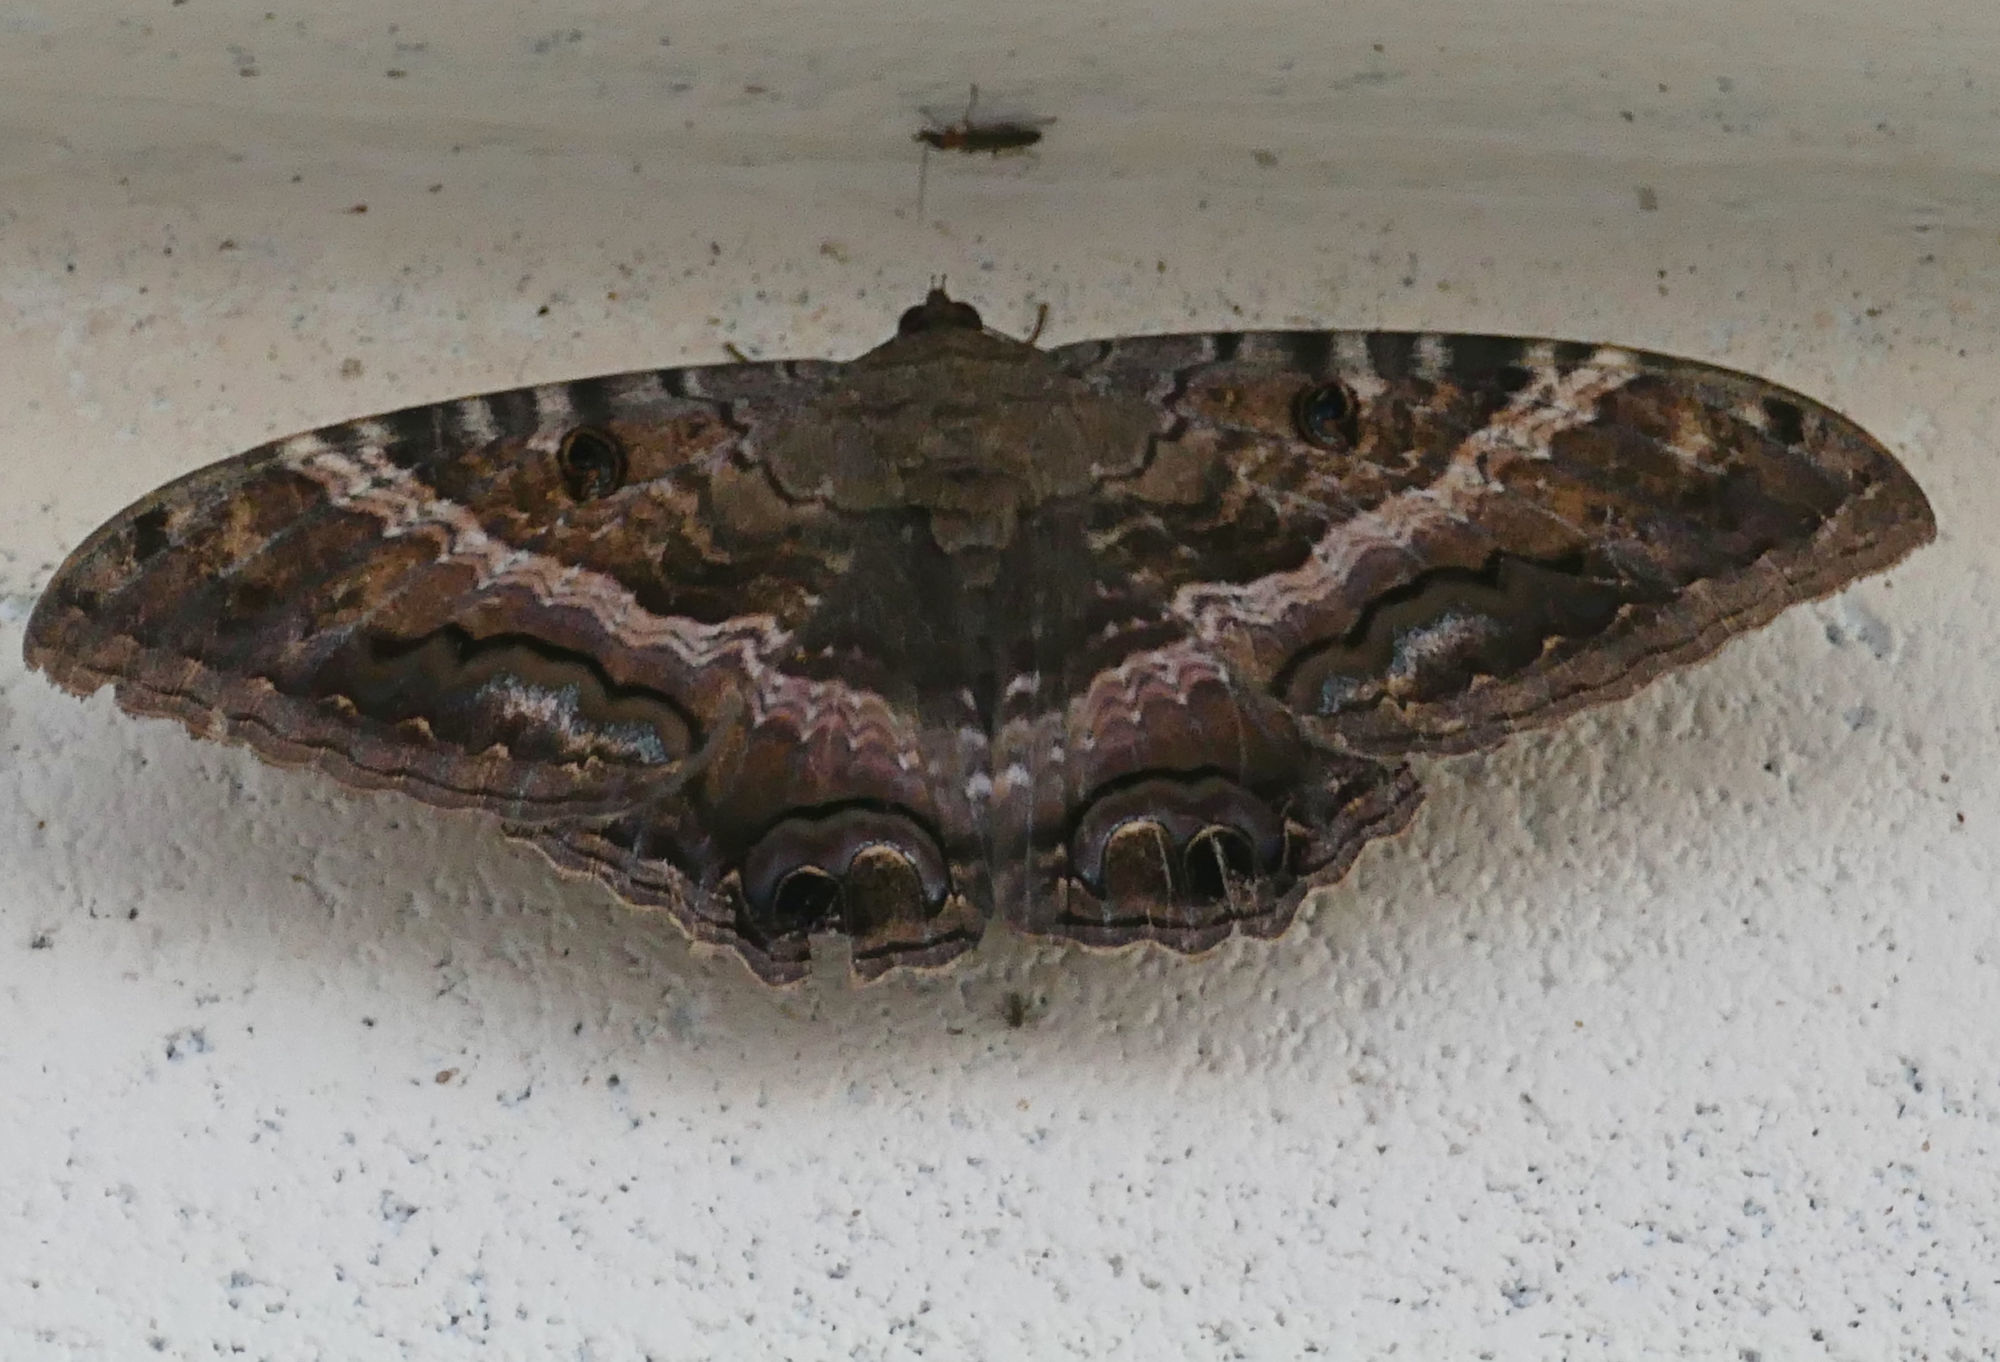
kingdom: Animalia
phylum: Arthropoda
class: Insecta
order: Lepidoptera
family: Erebidae
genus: Ascalapha
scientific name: Ascalapha odorata
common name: Black witch
